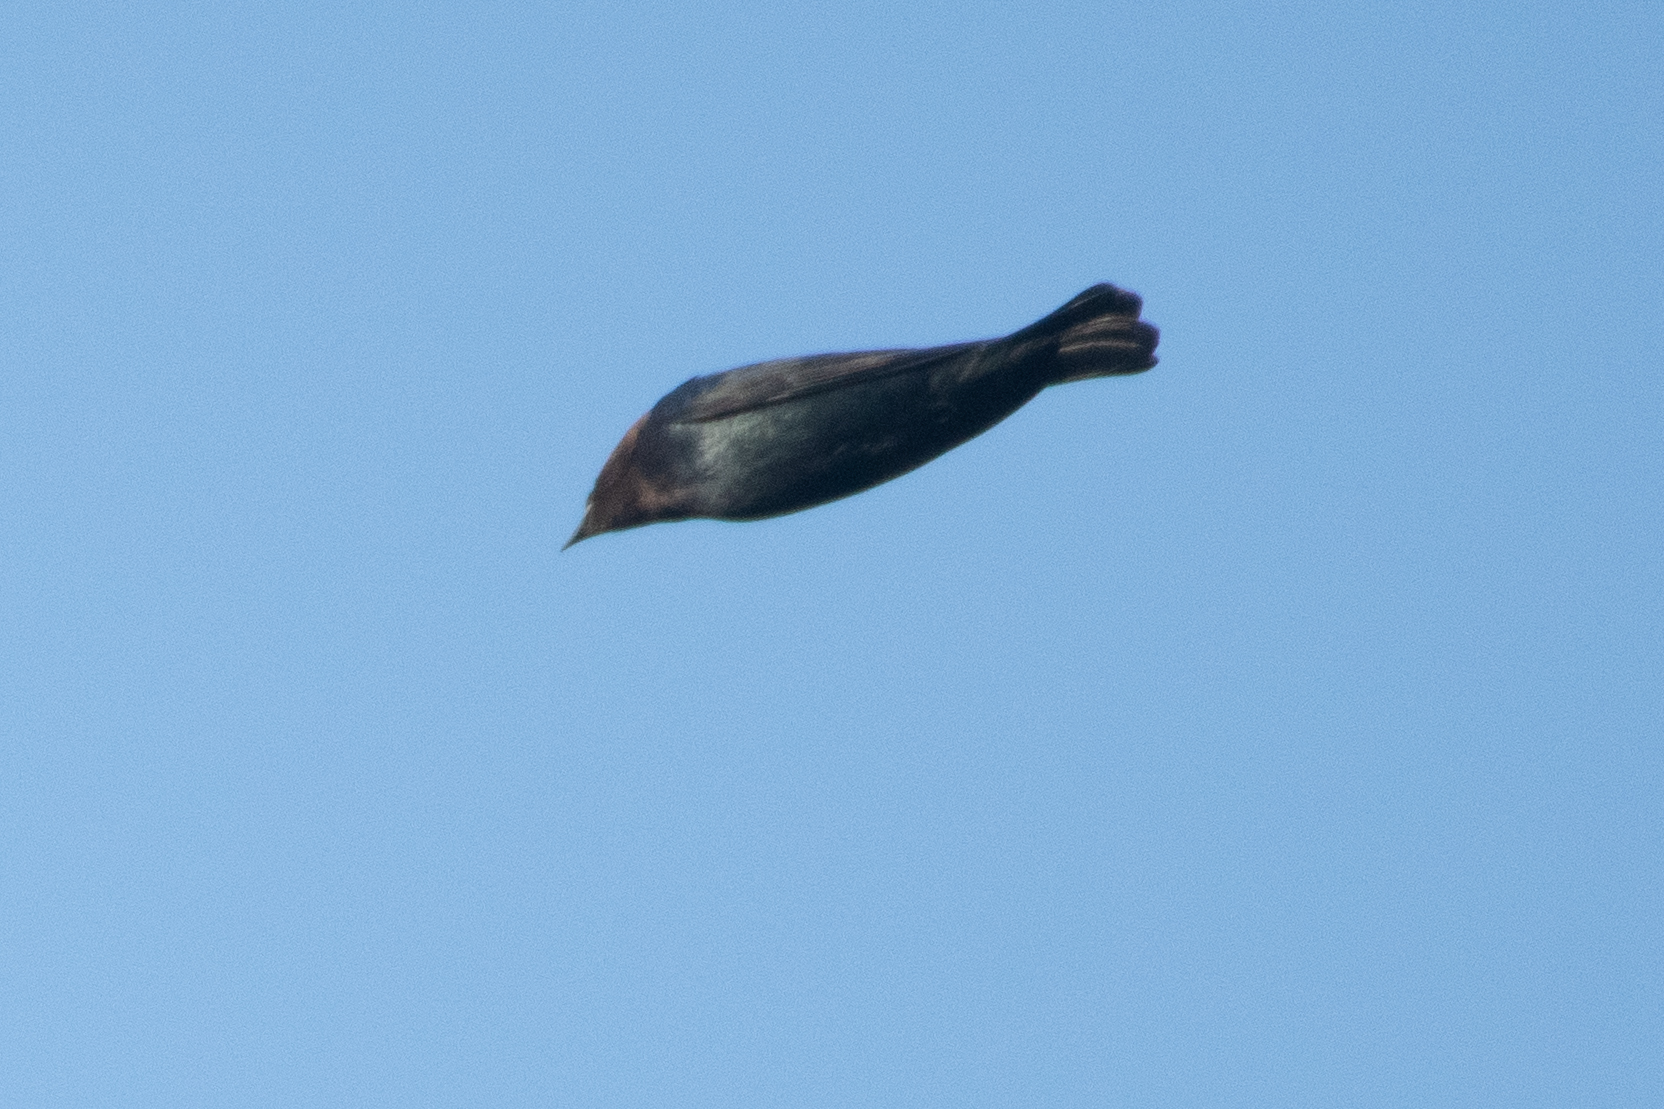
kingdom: Animalia
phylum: Chordata
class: Aves
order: Passeriformes
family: Icteridae
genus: Molothrus
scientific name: Molothrus ater
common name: Brown-headed cowbird
